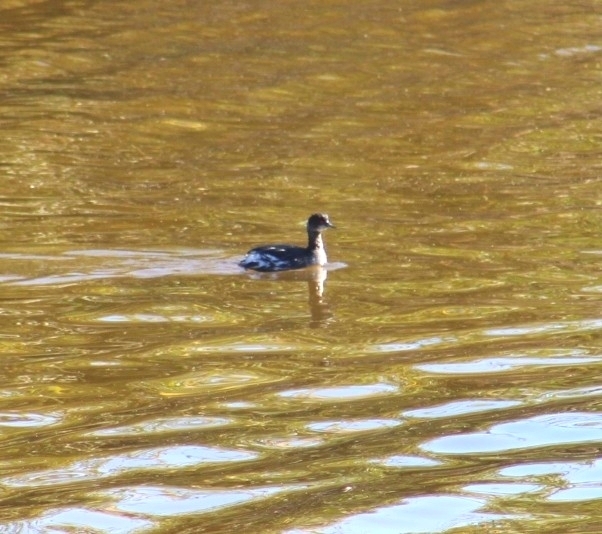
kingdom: Animalia
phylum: Chordata
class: Aves
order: Podicipediformes
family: Podicipedidae
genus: Podiceps
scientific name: Podiceps nigricollis
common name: Black-necked grebe
